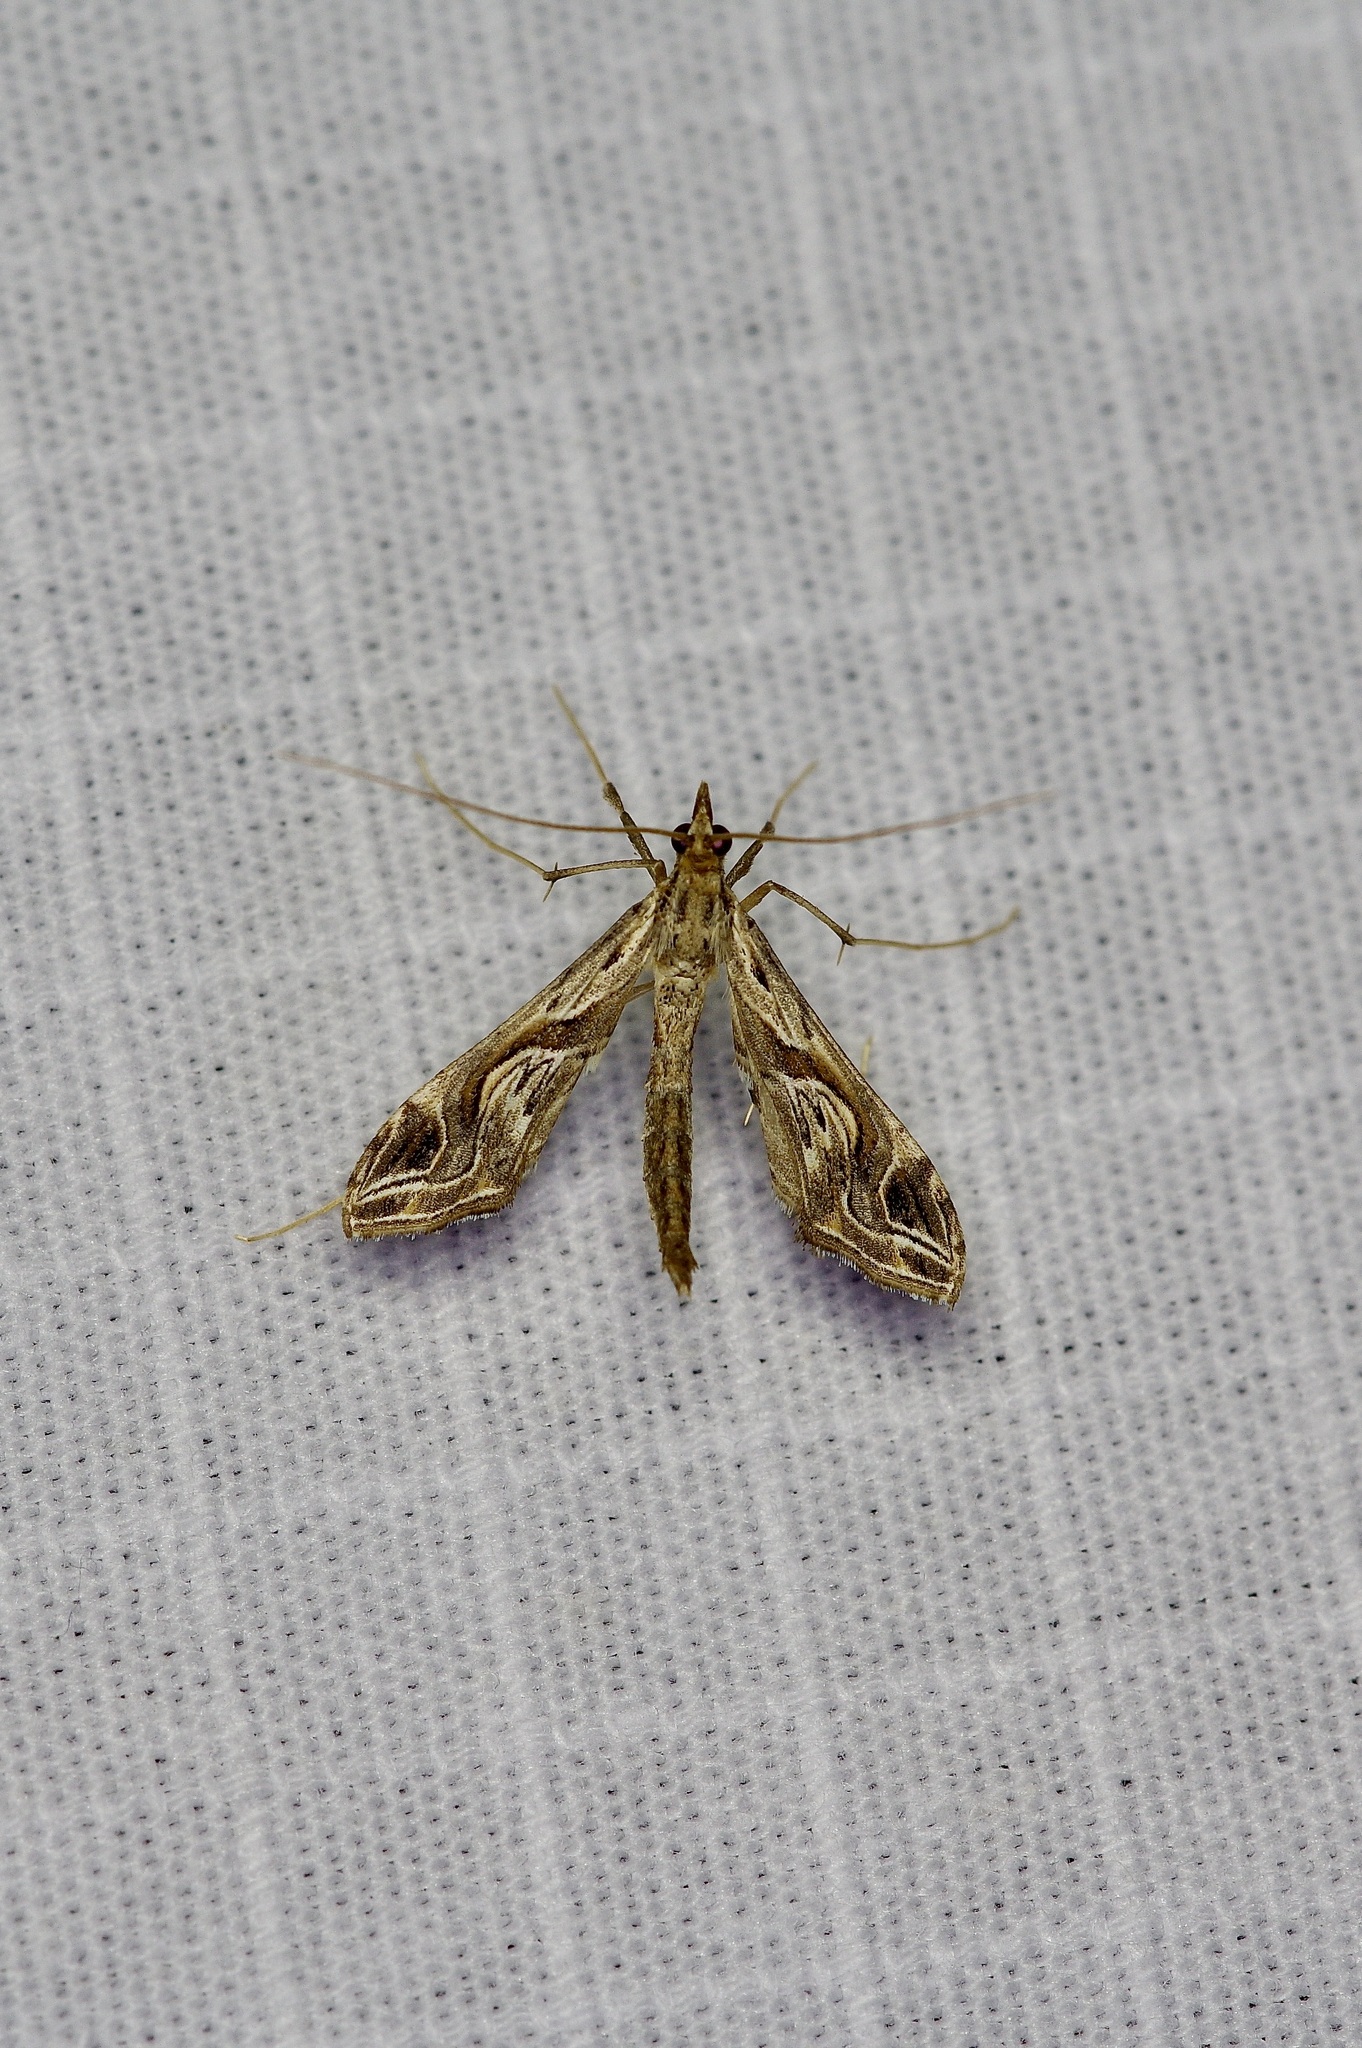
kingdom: Animalia
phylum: Arthropoda
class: Insecta
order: Lepidoptera
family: Crambidae
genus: Lineodes
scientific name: Lineodes integra
